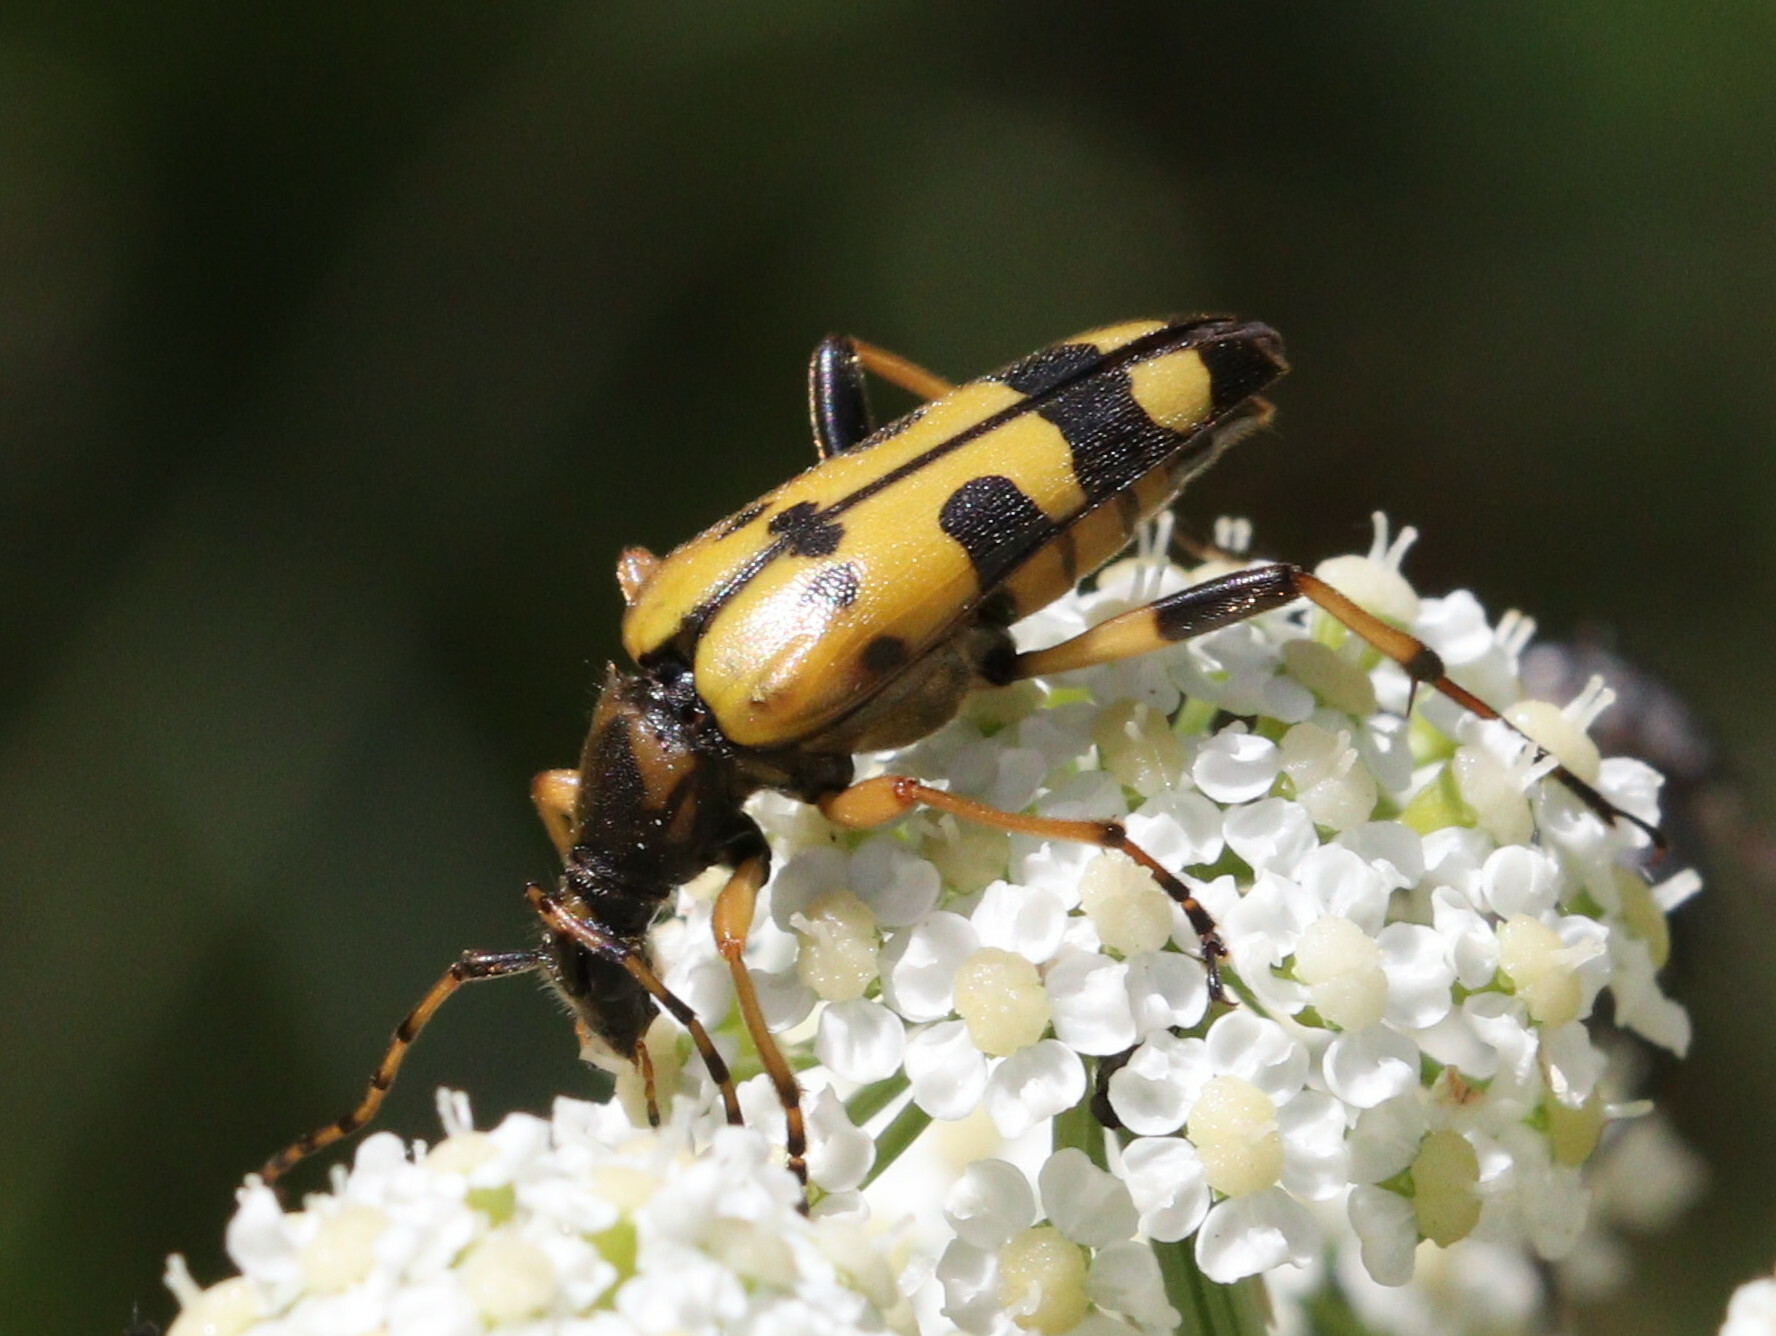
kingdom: Animalia
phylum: Arthropoda
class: Insecta
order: Coleoptera
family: Cerambycidae
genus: Rutpela
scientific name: Rutpela maculata
